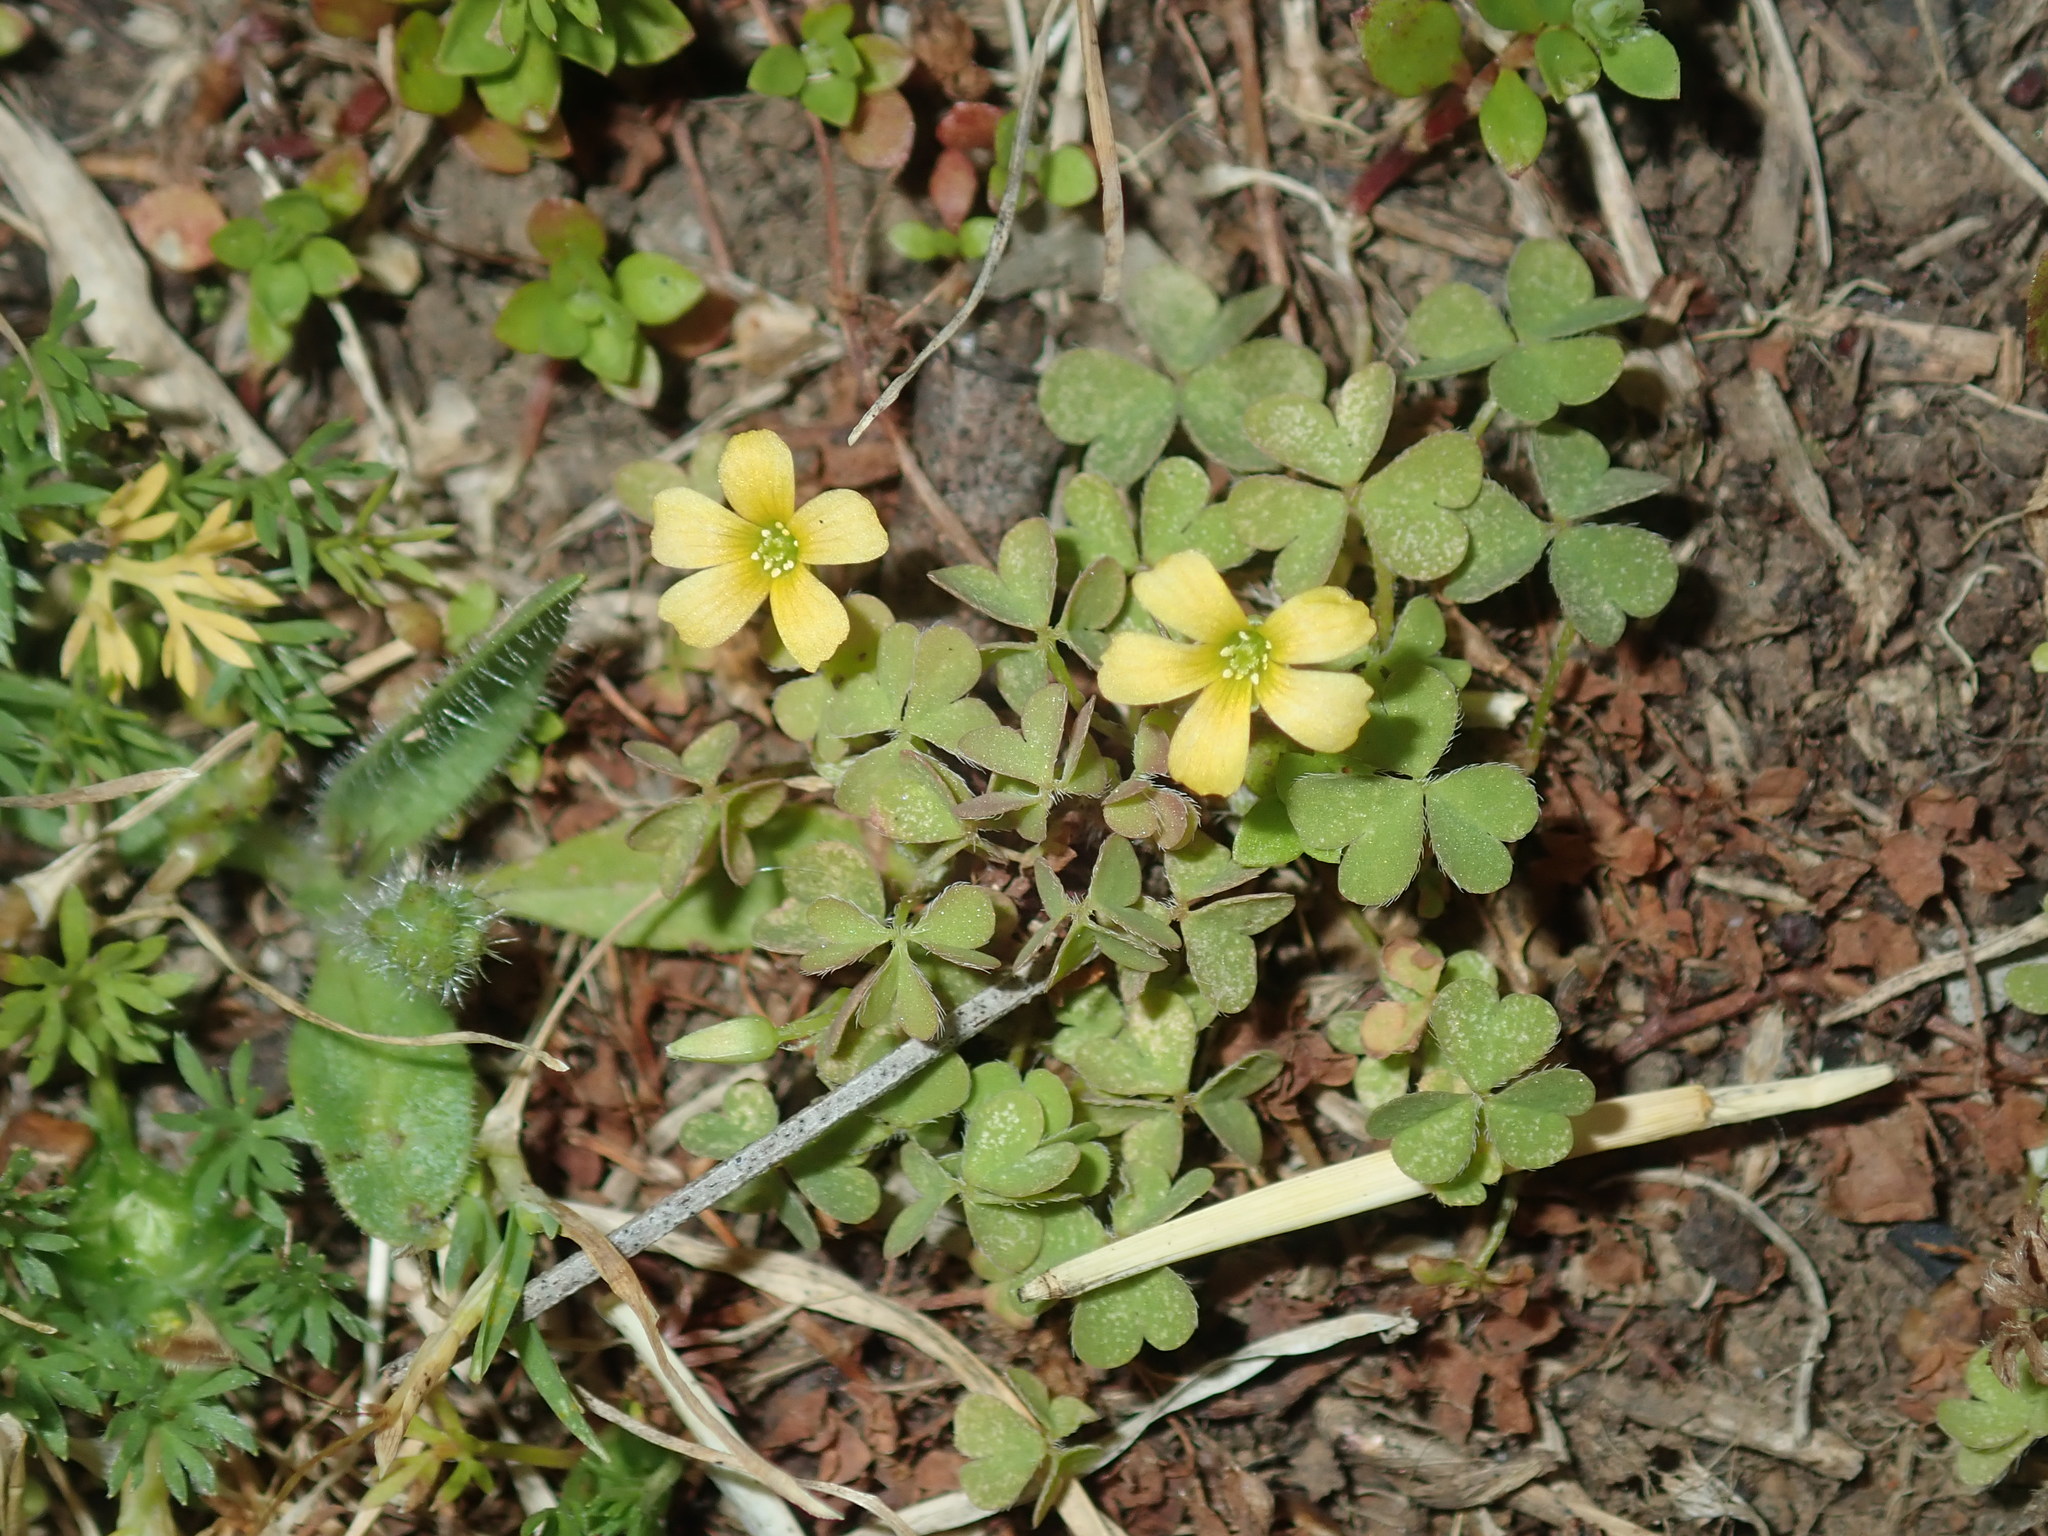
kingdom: Plantae
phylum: Tracheophyta
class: Magnoliopsida
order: Oxalidales
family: Oxalidaceae
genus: Oxalis
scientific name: Oxalis corniculata
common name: Procumbent yellow-sorrel
